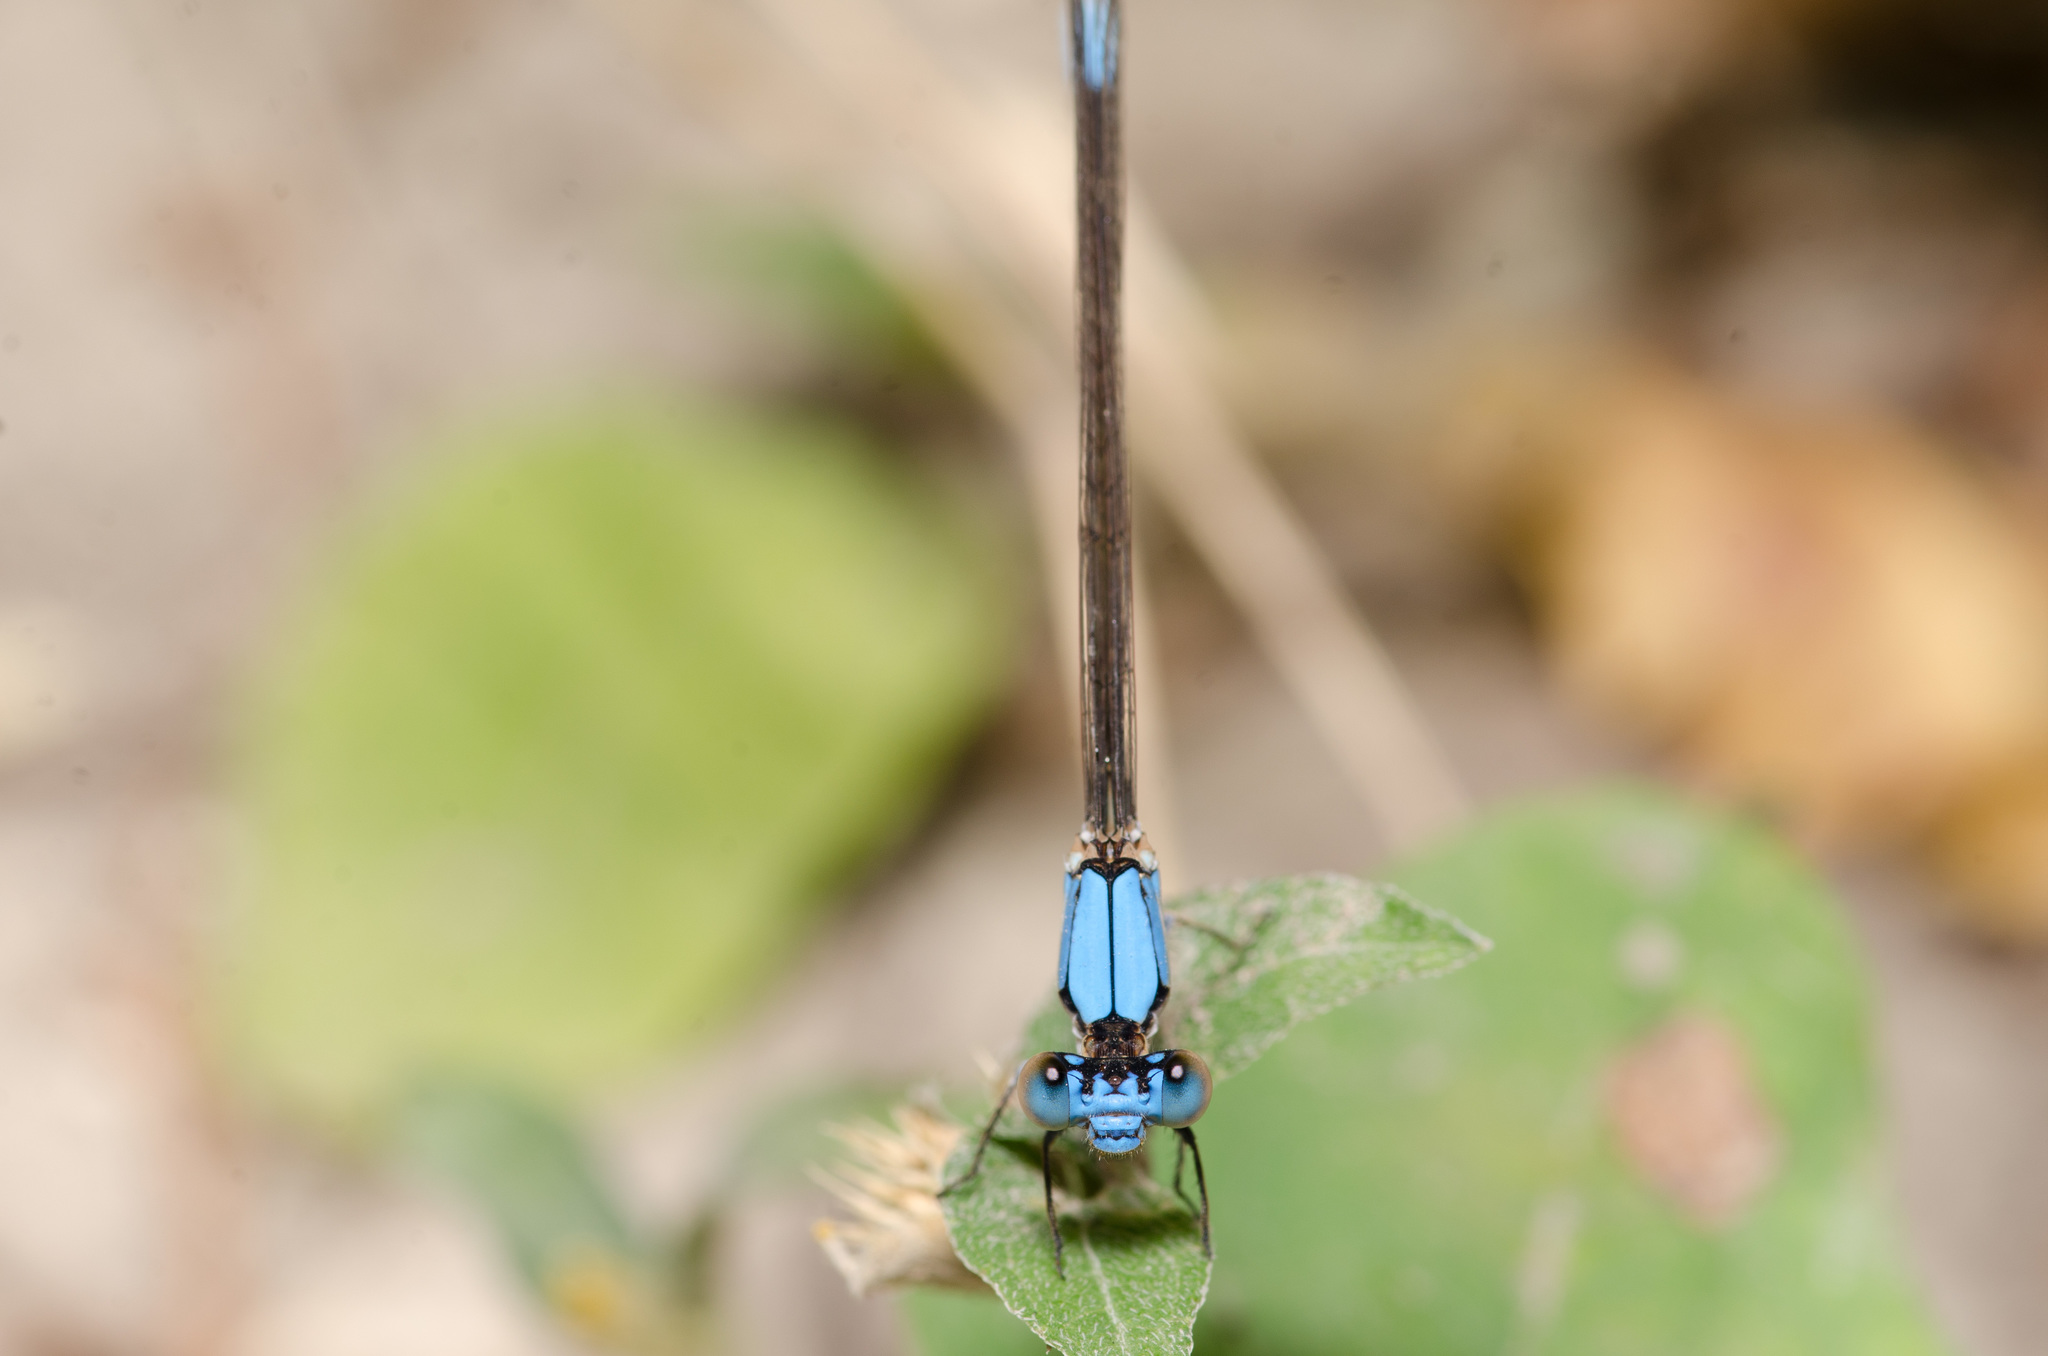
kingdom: Animalia
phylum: Arthropoda
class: Insecta
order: Odonata
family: Coenagrionidae
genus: Argia
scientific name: Argia apicalis
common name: Blue-fronted dancer
